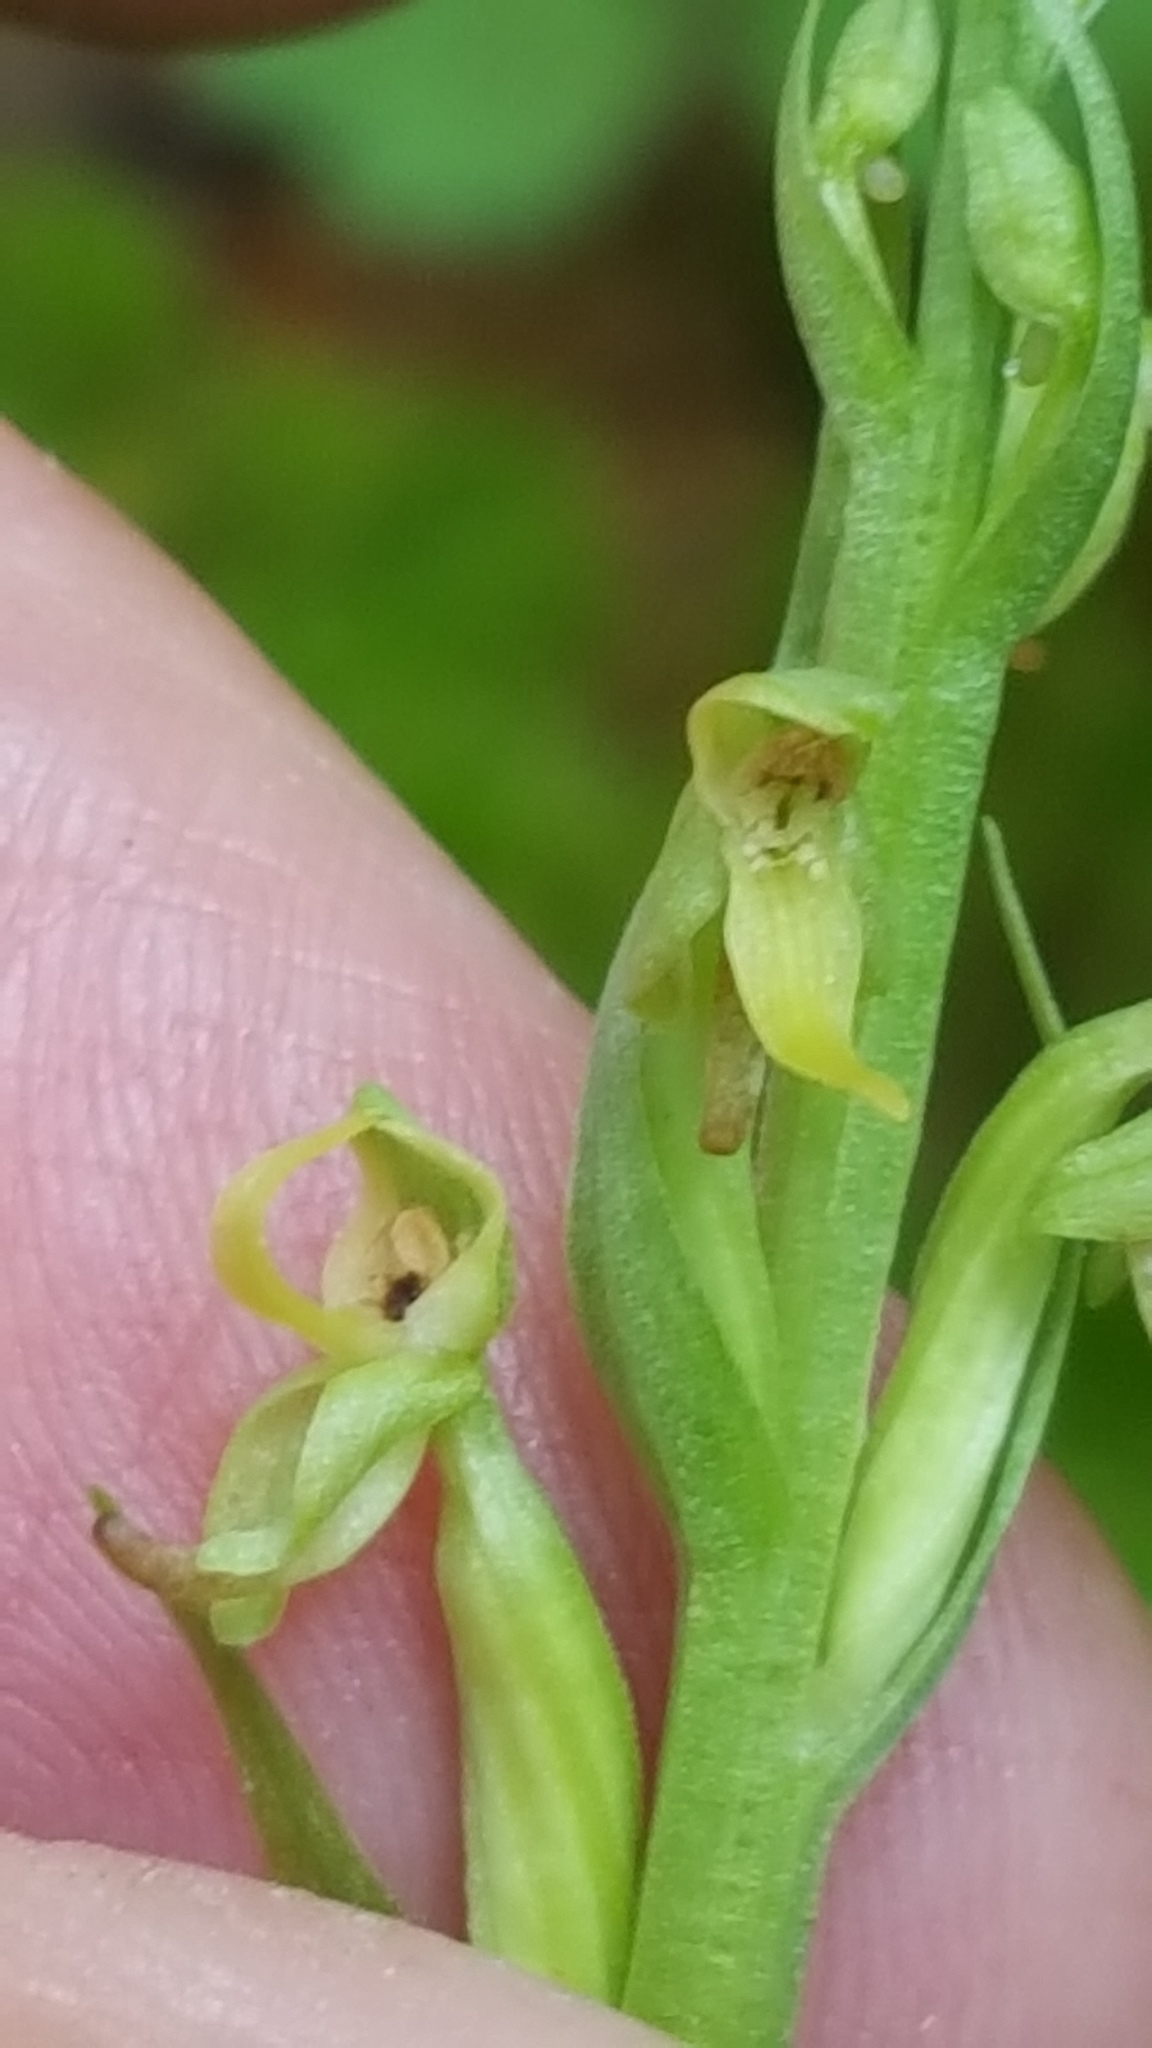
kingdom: Plantae
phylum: Tracheophyta
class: Liliopsida
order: Asparagales
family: Orchidaceae
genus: Platanthera
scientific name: Platanthera aquilonis
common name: Northern green orchid
